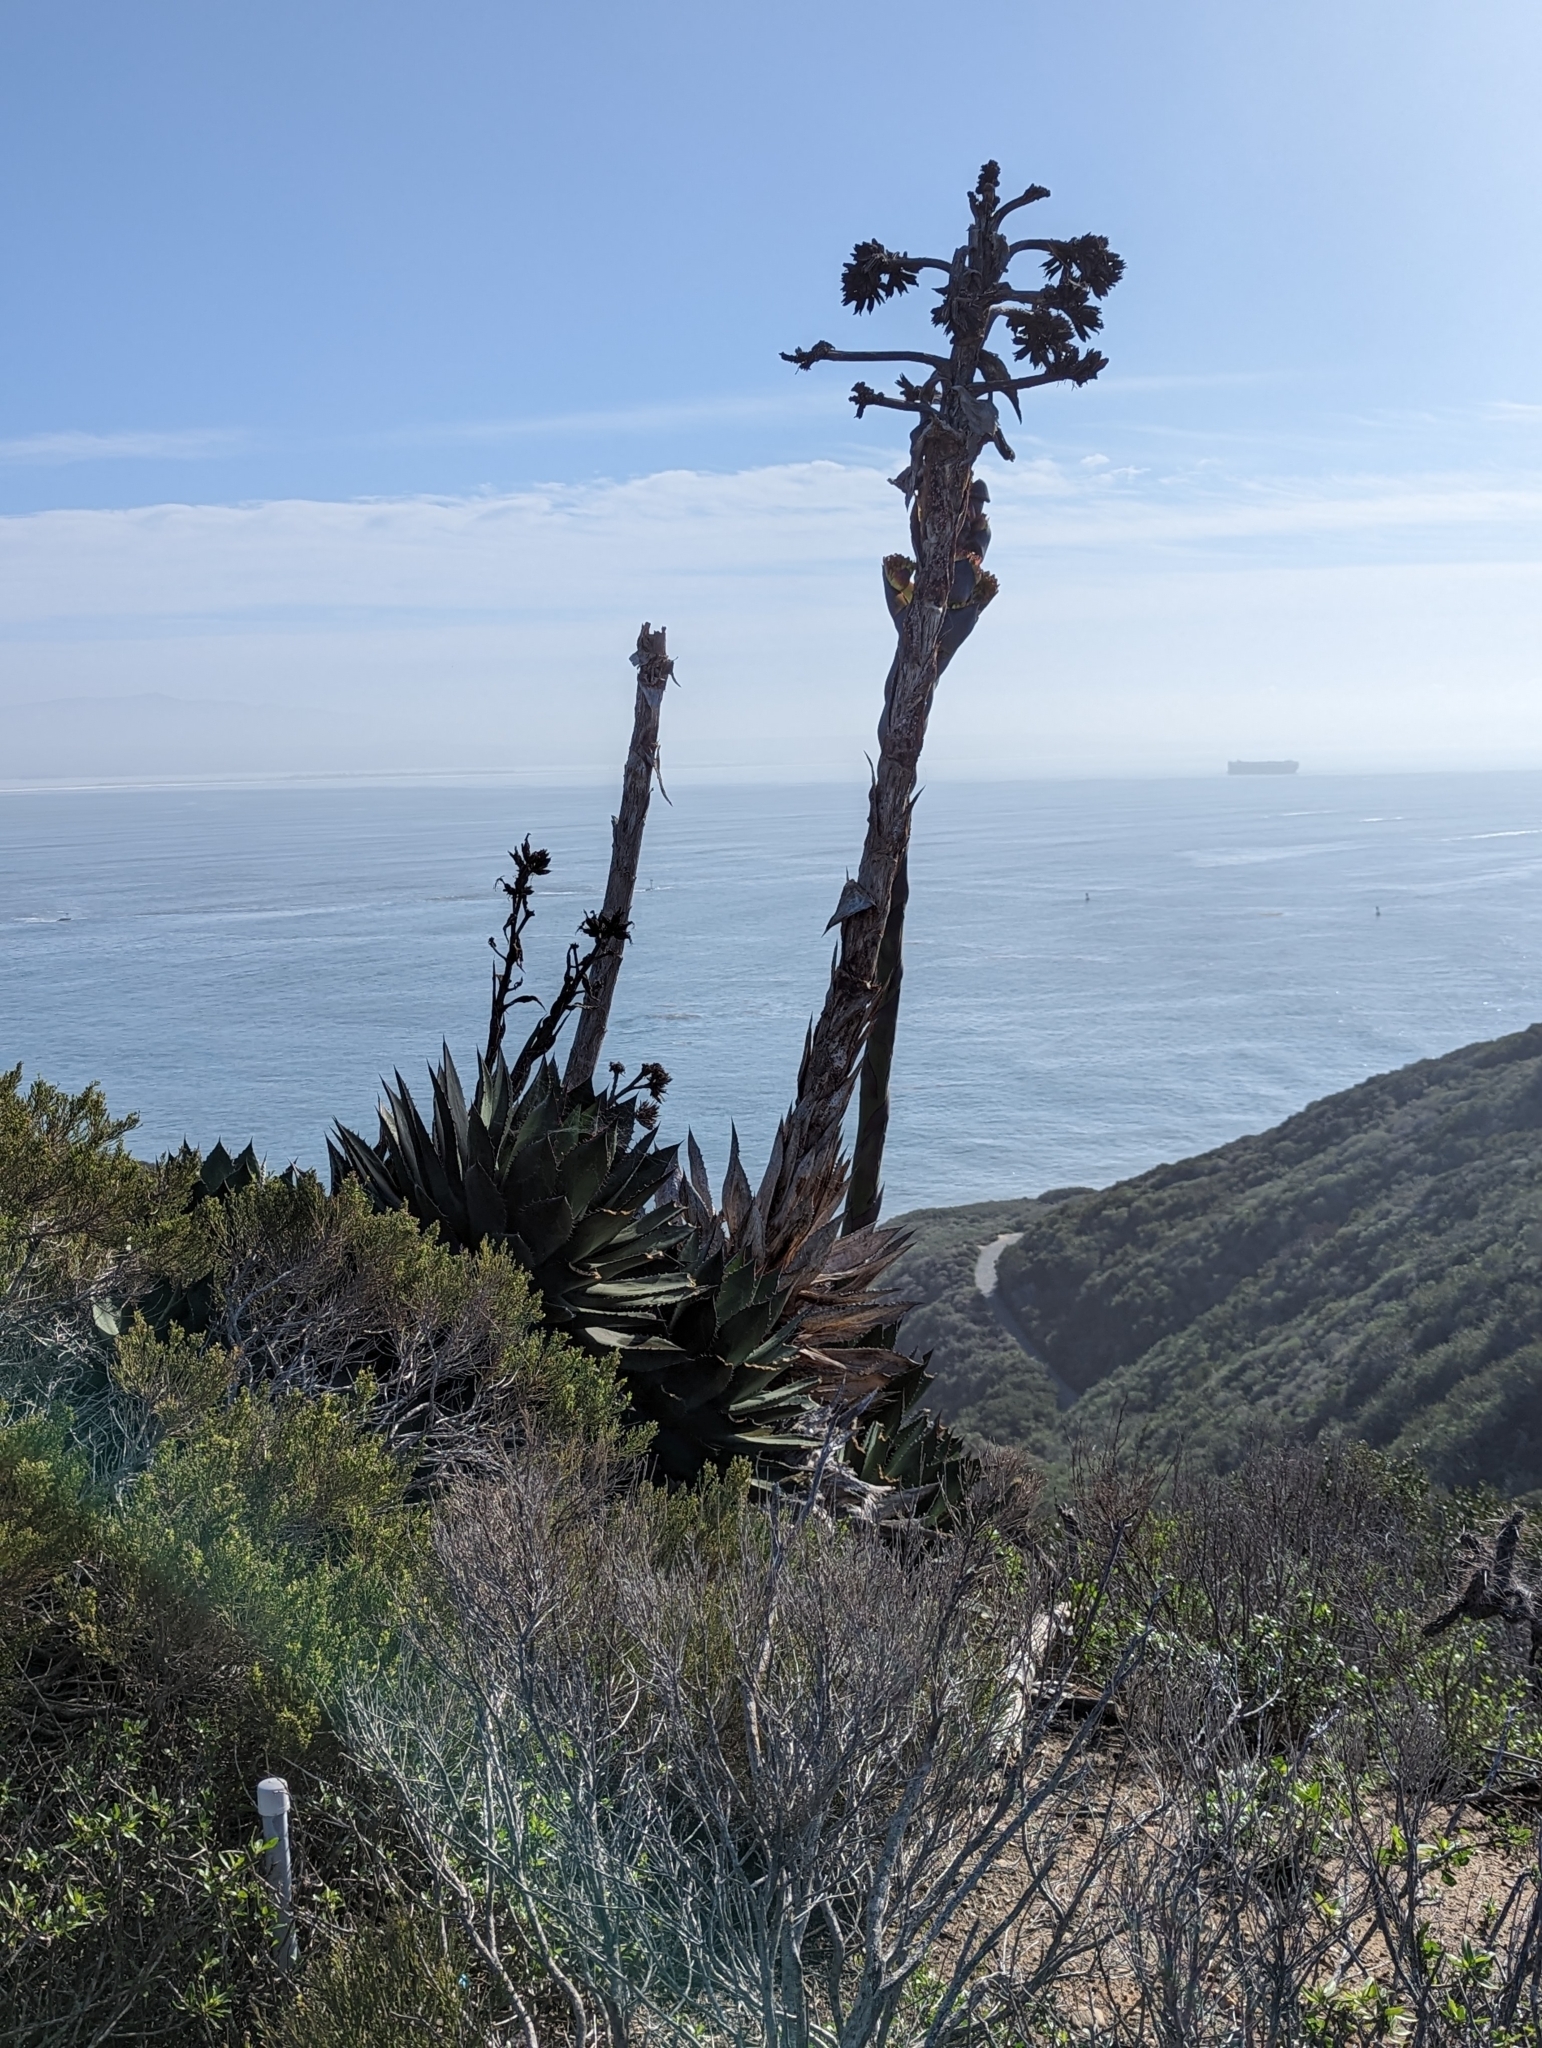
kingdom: Plantae
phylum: Tracheophyta
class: Liliopsida
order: Asparagales
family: Asparagaceae
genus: Agave
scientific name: Agave shawii
